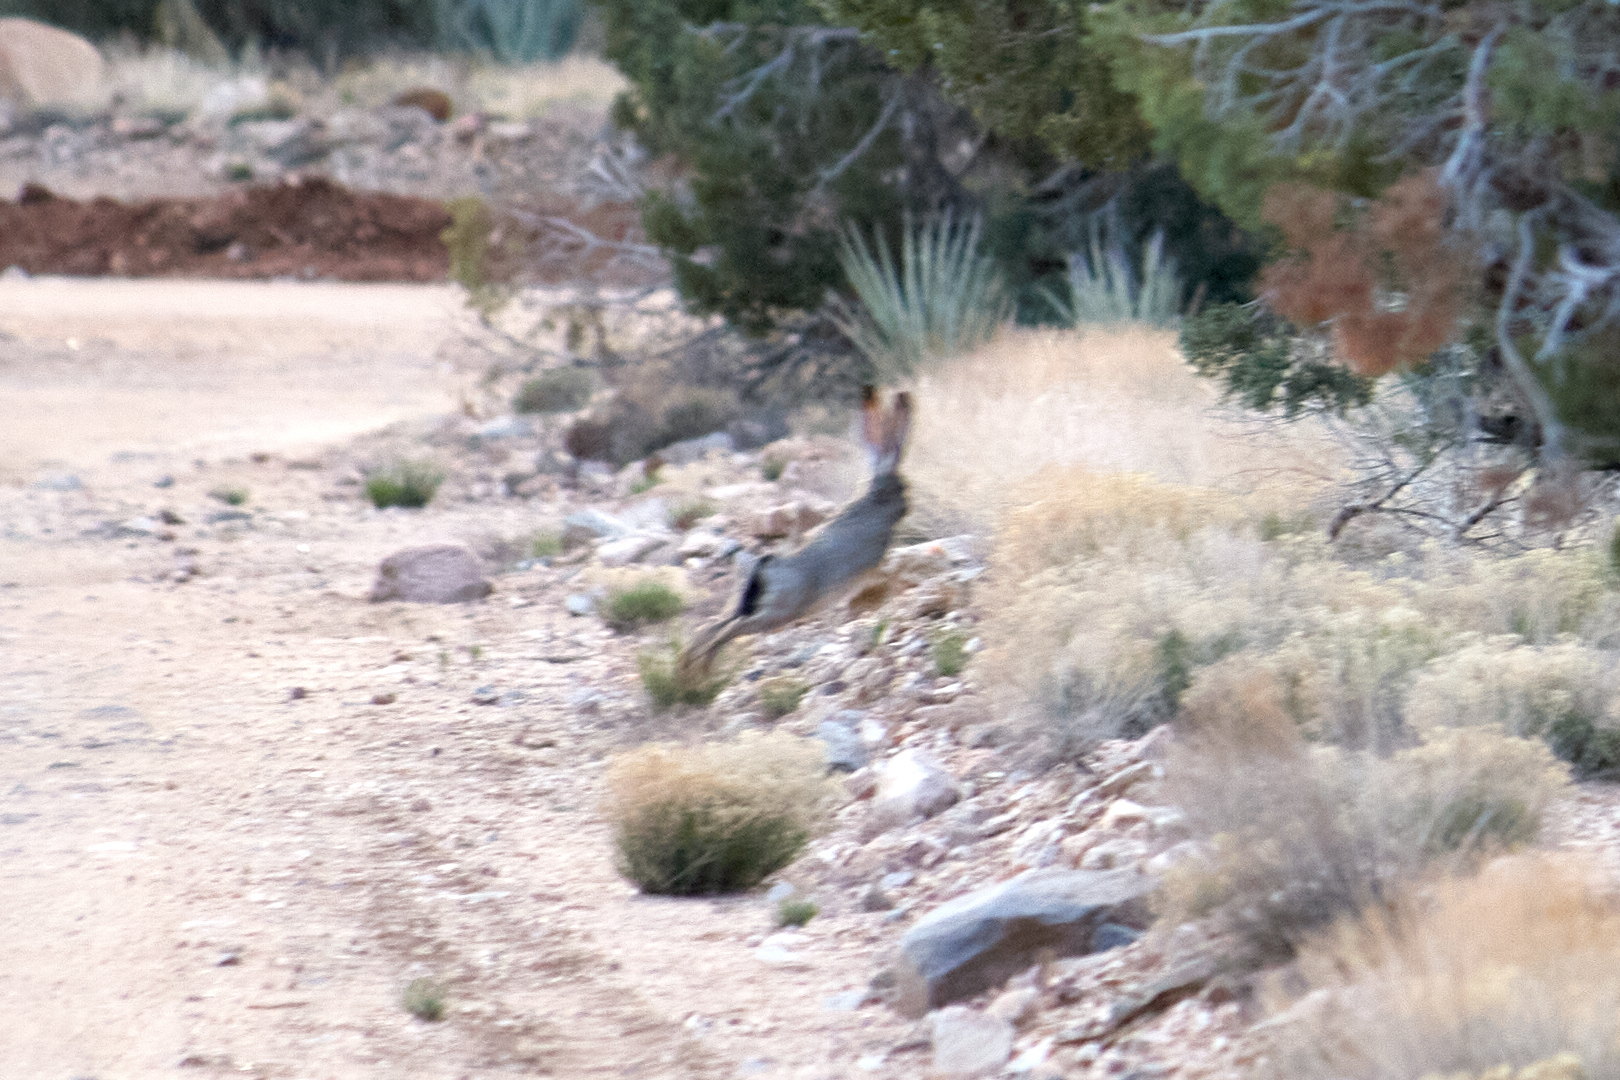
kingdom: Animalia
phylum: Chordata
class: Mammalia
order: Lagomorpha
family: Leporidae
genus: Lepus
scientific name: Lepus californicus
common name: Black-tailed jackrabbit
